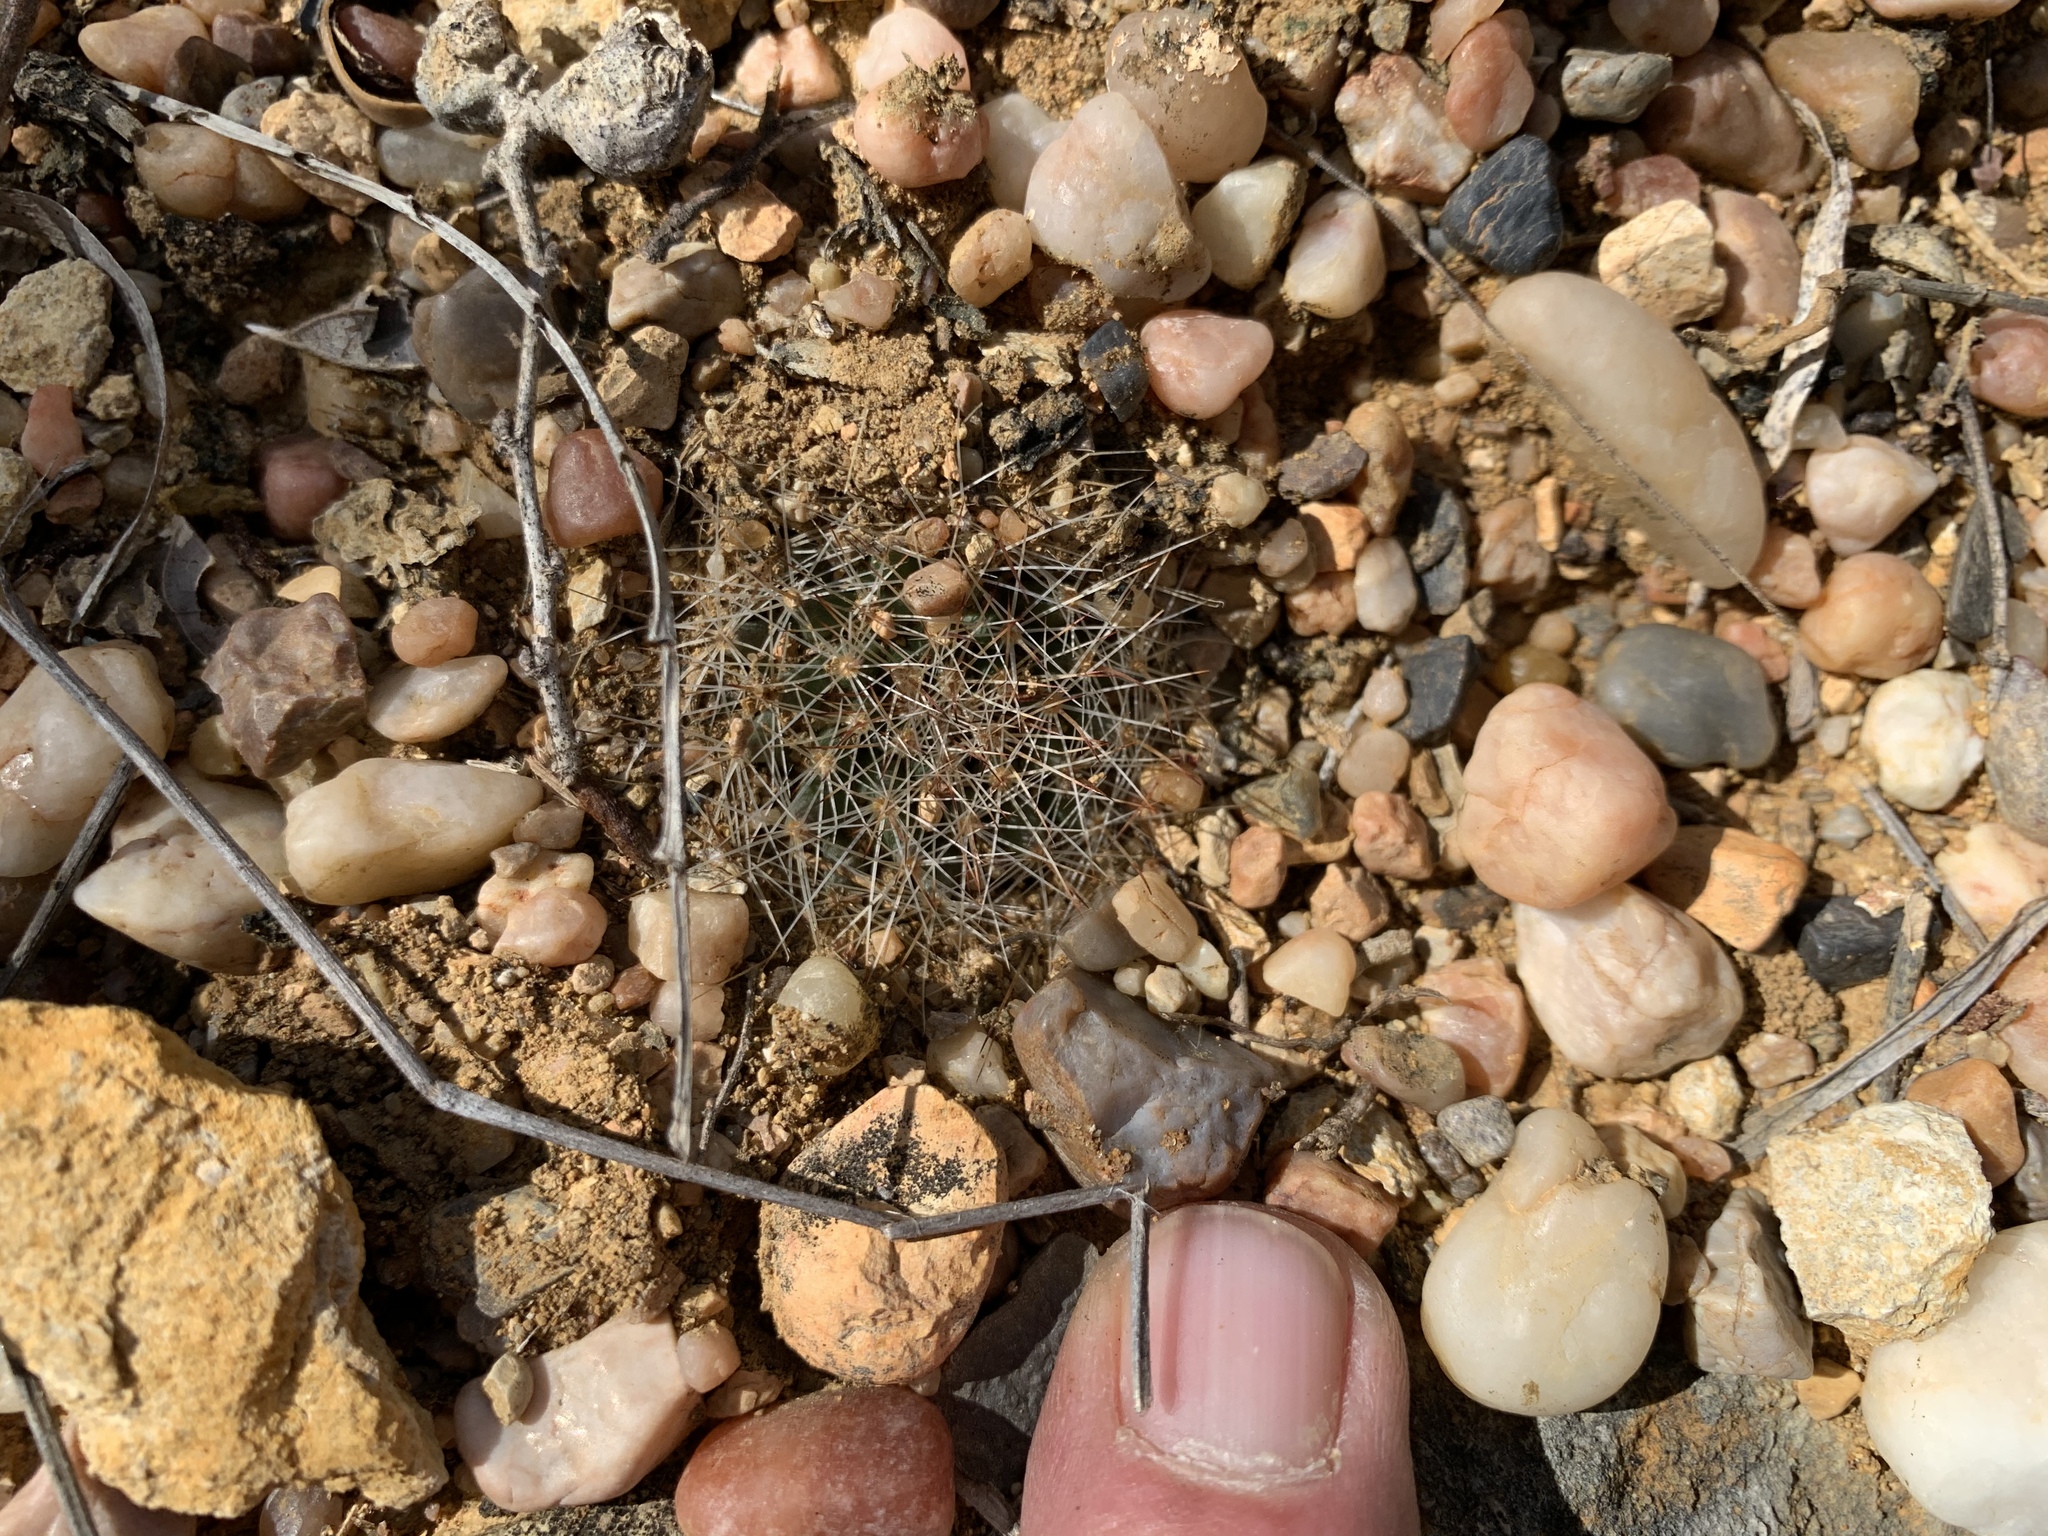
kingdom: Plantae
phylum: Tracheophyta
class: Magnoliopsida
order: Caryophyllales
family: Cactaceae
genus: Mammillaria
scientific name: Mammillaria heyderi
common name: Little nipple cactus
